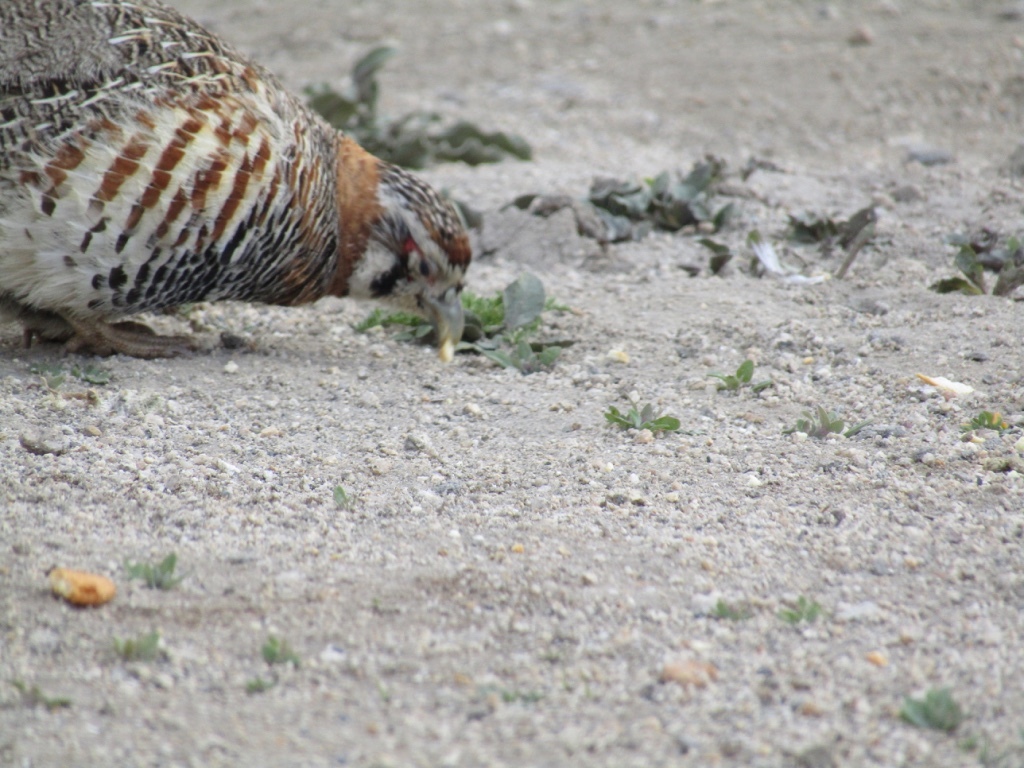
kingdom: Animalia
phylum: Chordata
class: Aves
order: Galliformes
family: Phasianidae
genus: Perdix
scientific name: Perdix hodgsoniae
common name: Tibetan partridge
